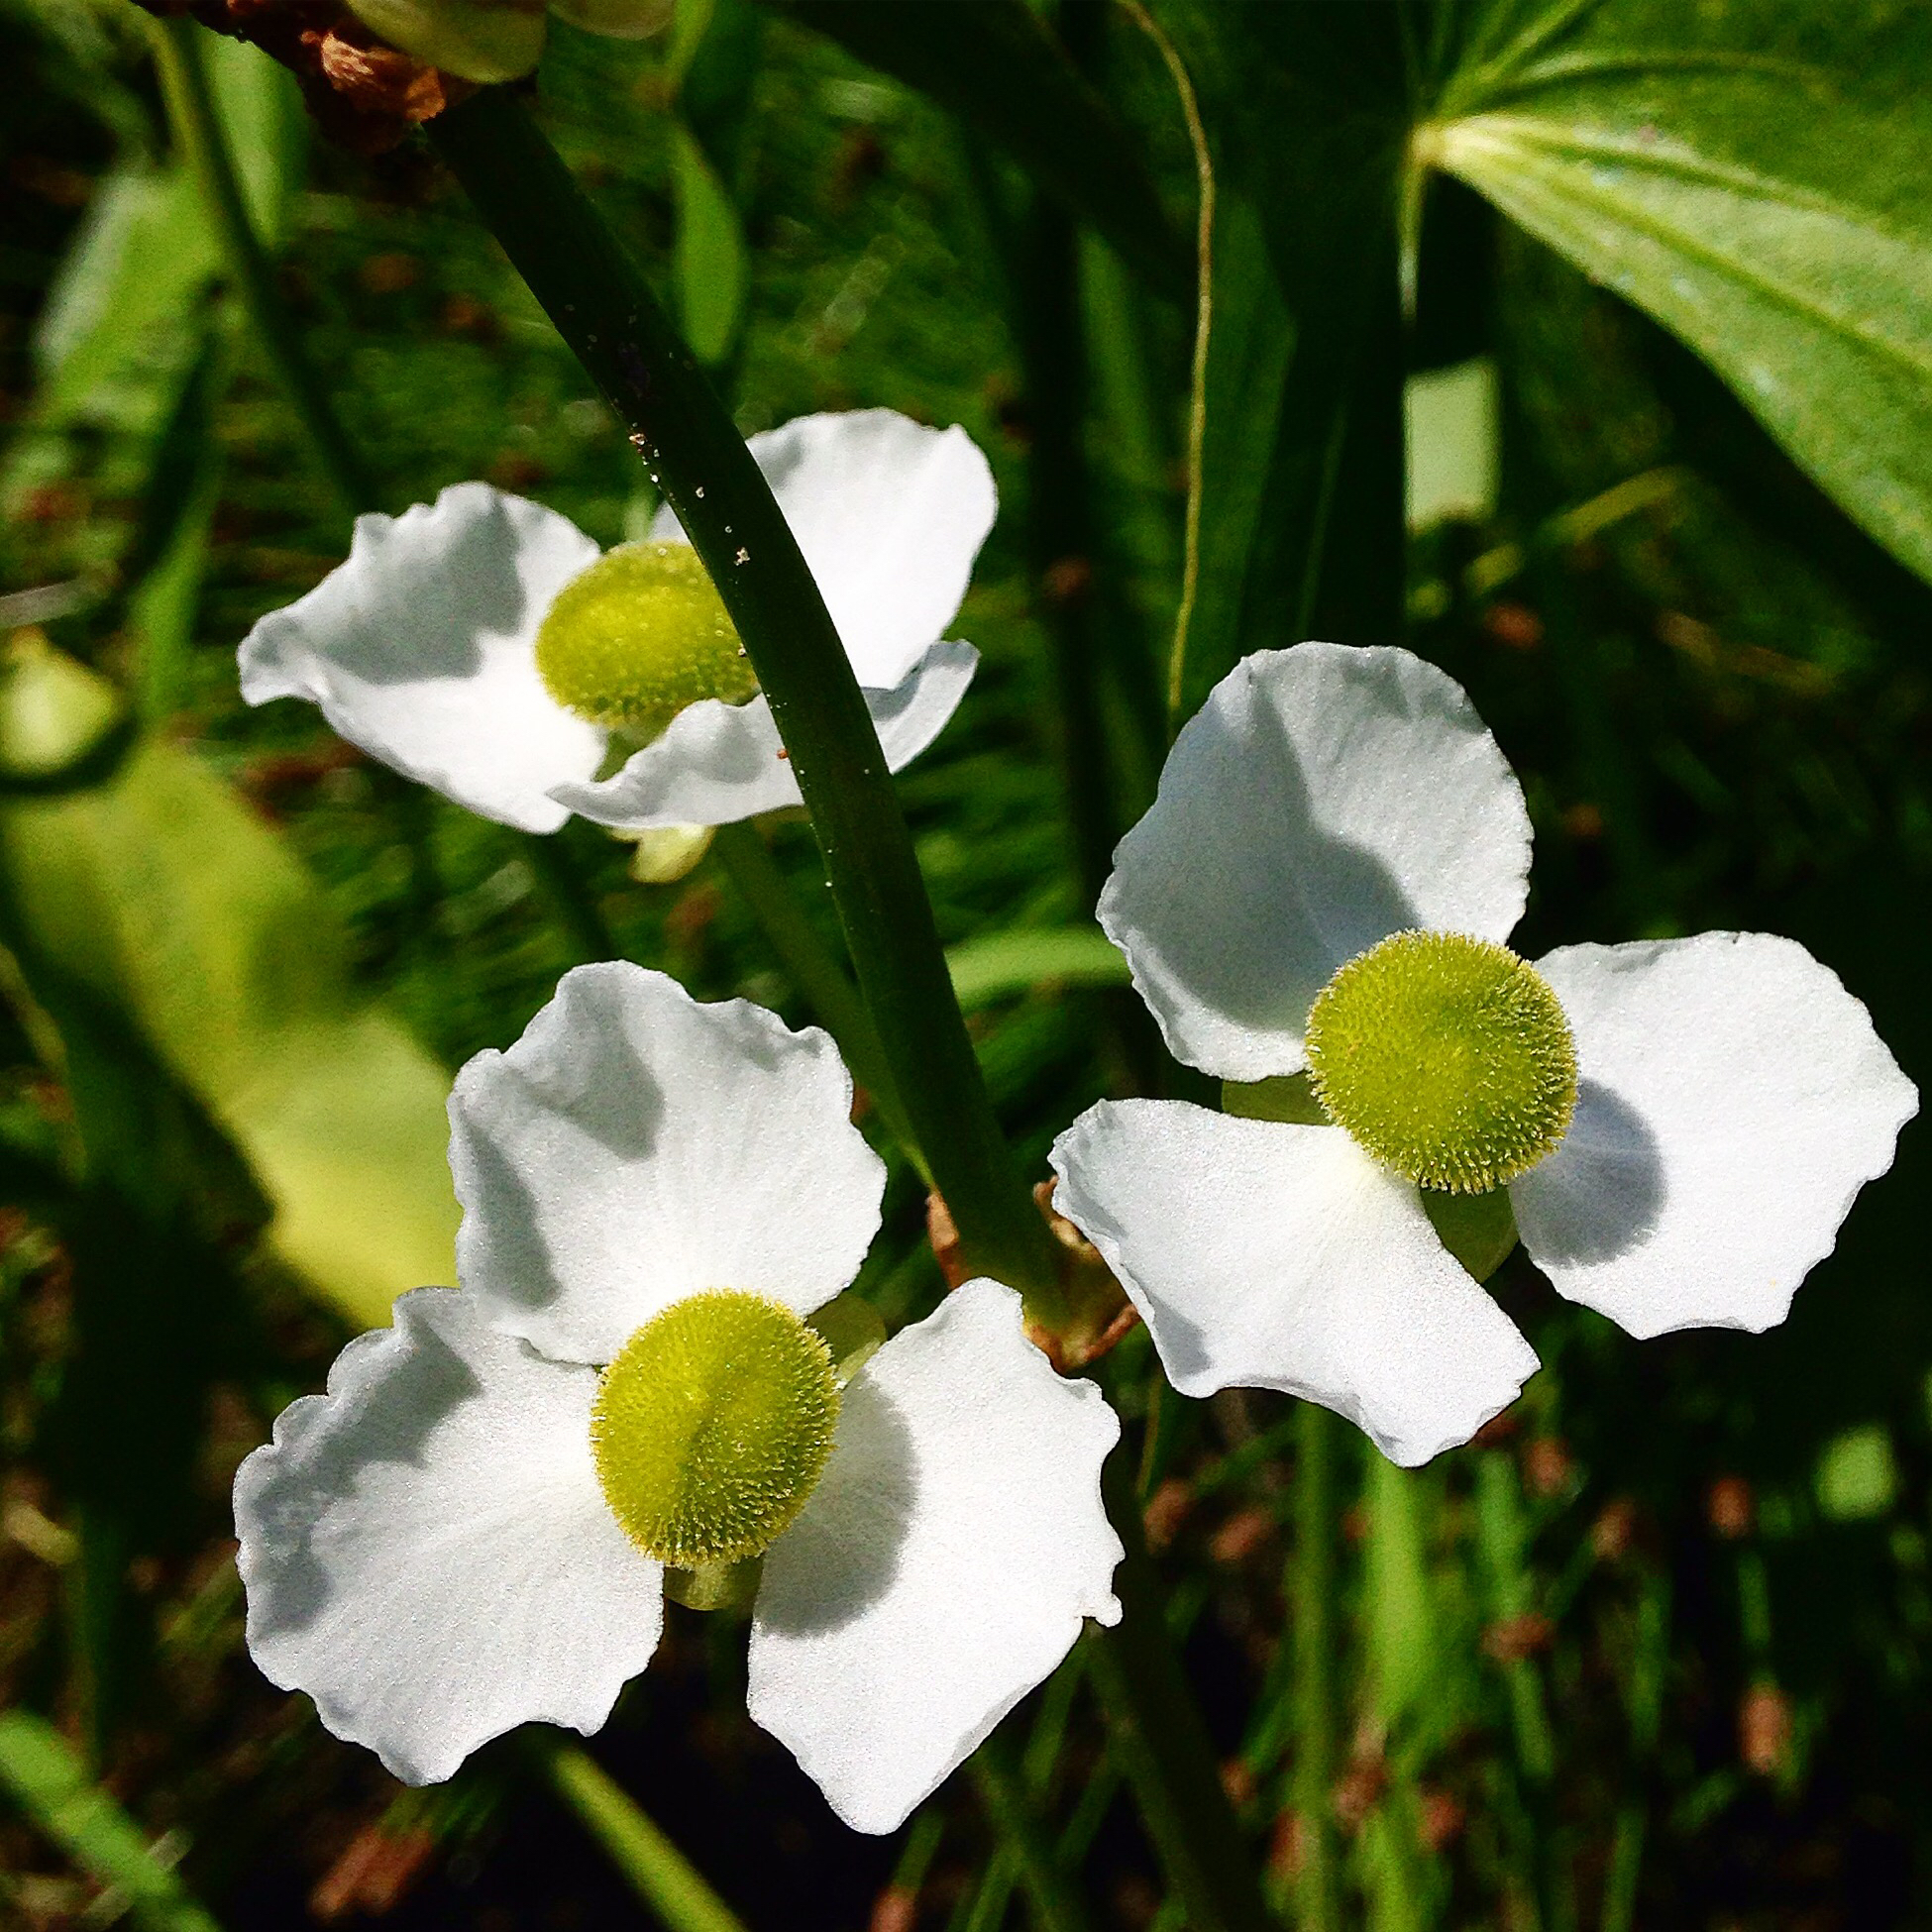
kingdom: Plantae
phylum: Tracheophyta
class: Liliopsida
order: Alismatales
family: Alismataceae
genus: Sagittaria
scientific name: Sagittaria latifolia
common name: Duck-potato
